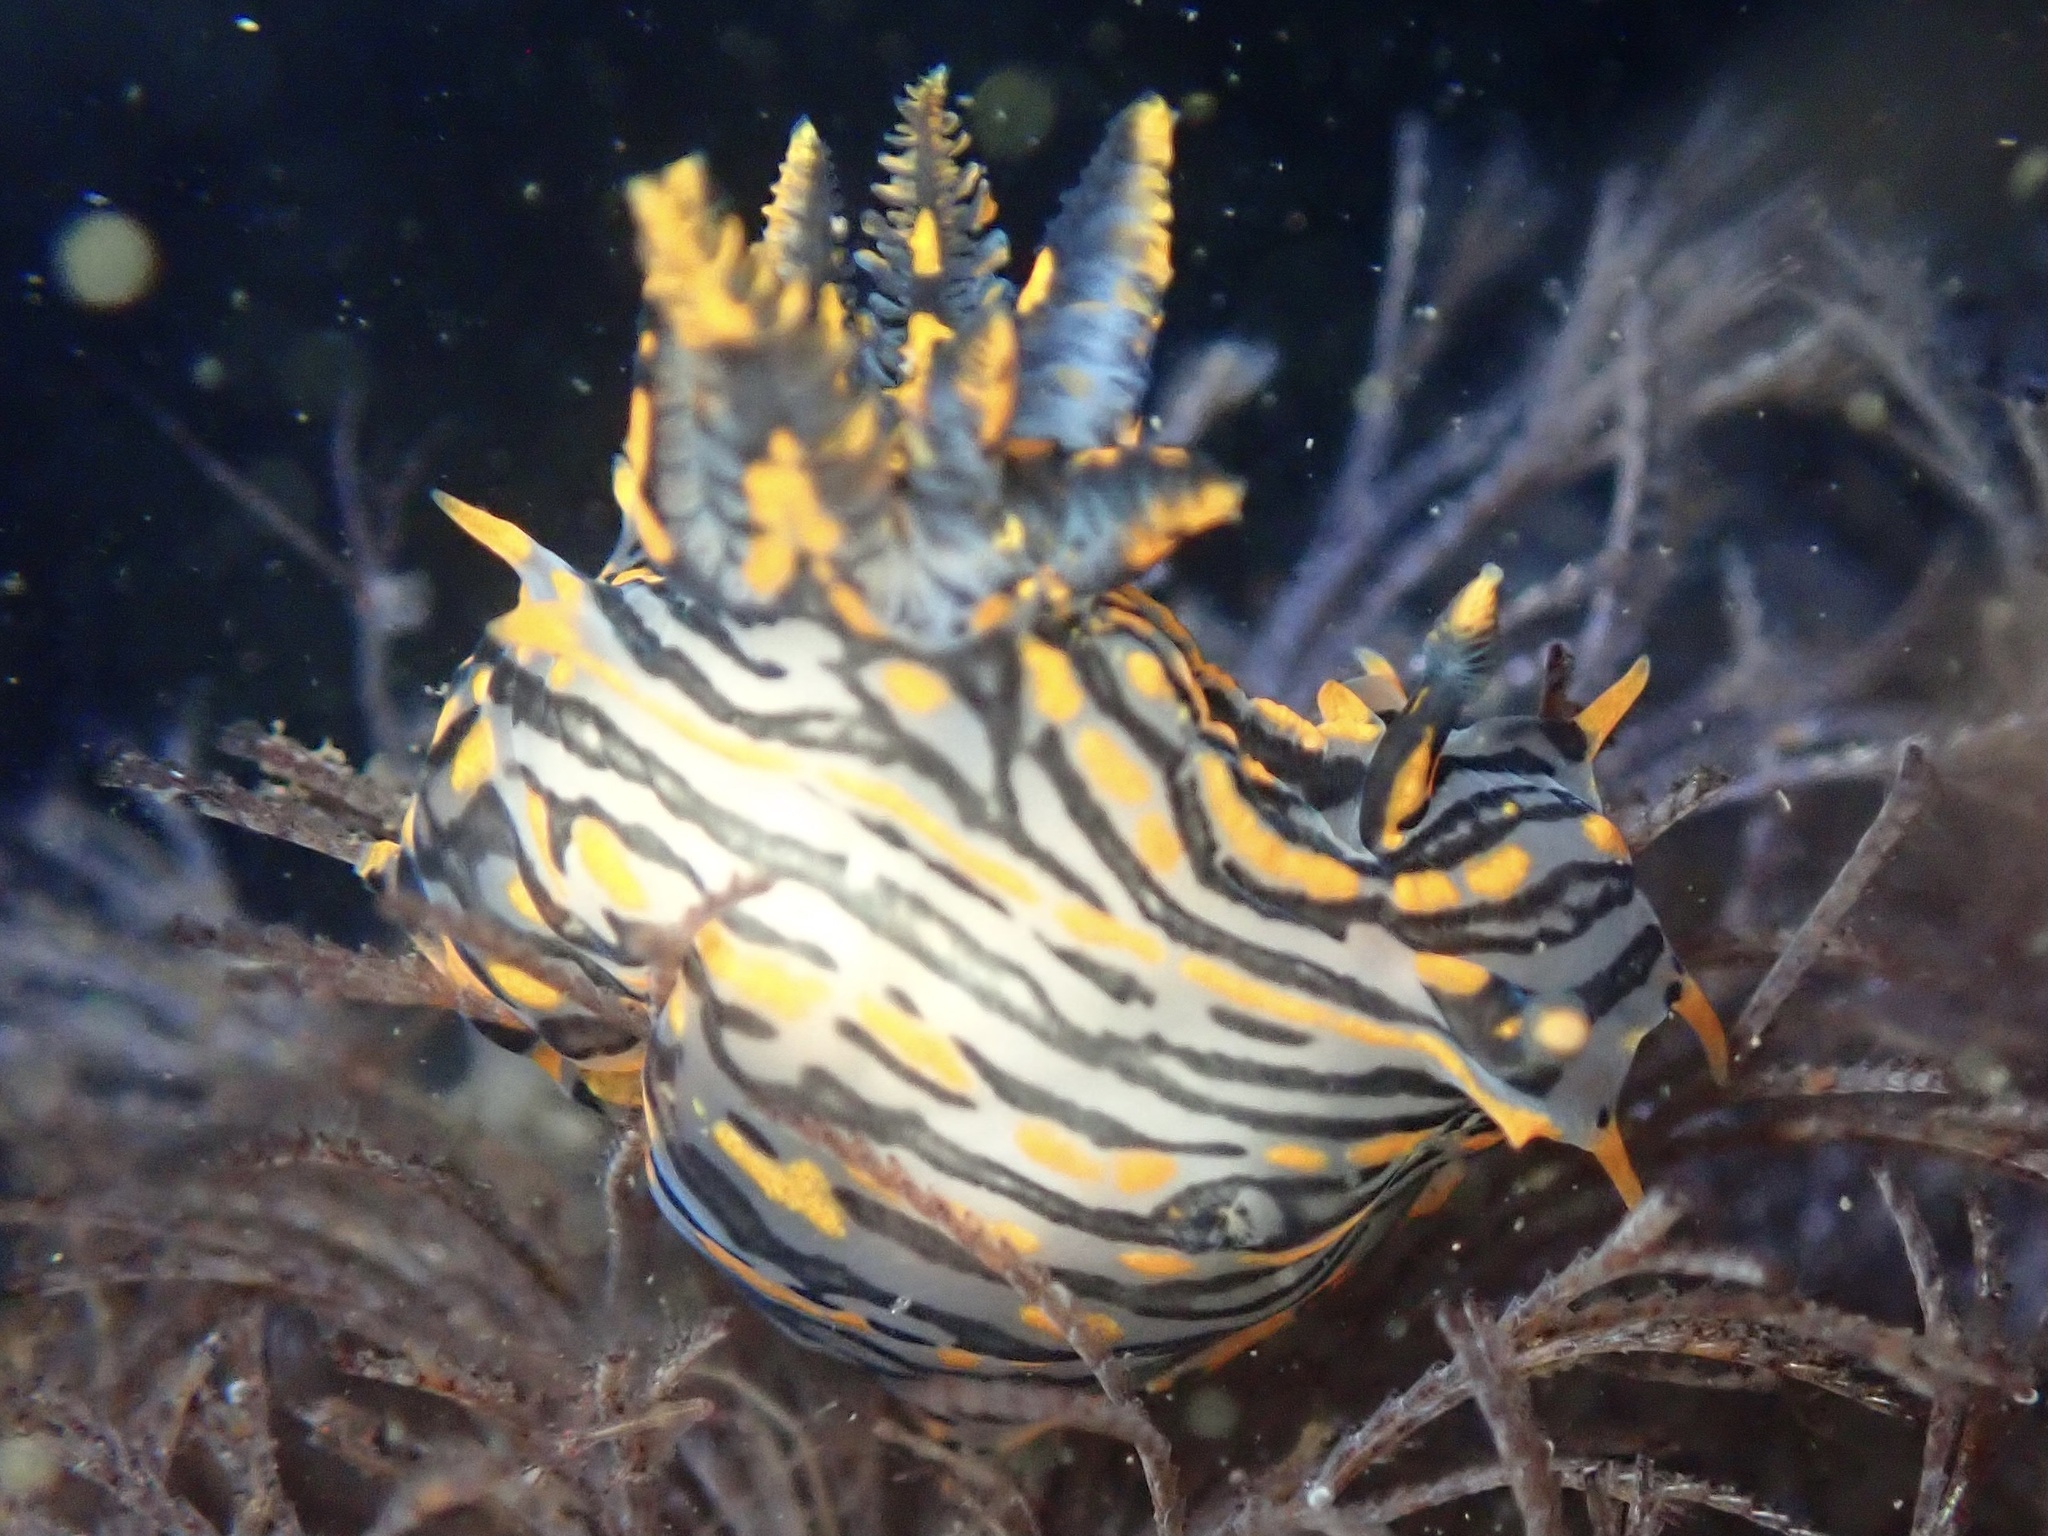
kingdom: Animalia
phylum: Mollusca
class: Gastropoda
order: Nudibranchia
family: Polyceridae
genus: Polycera
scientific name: Polycera atra
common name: Orange-spike polycera
